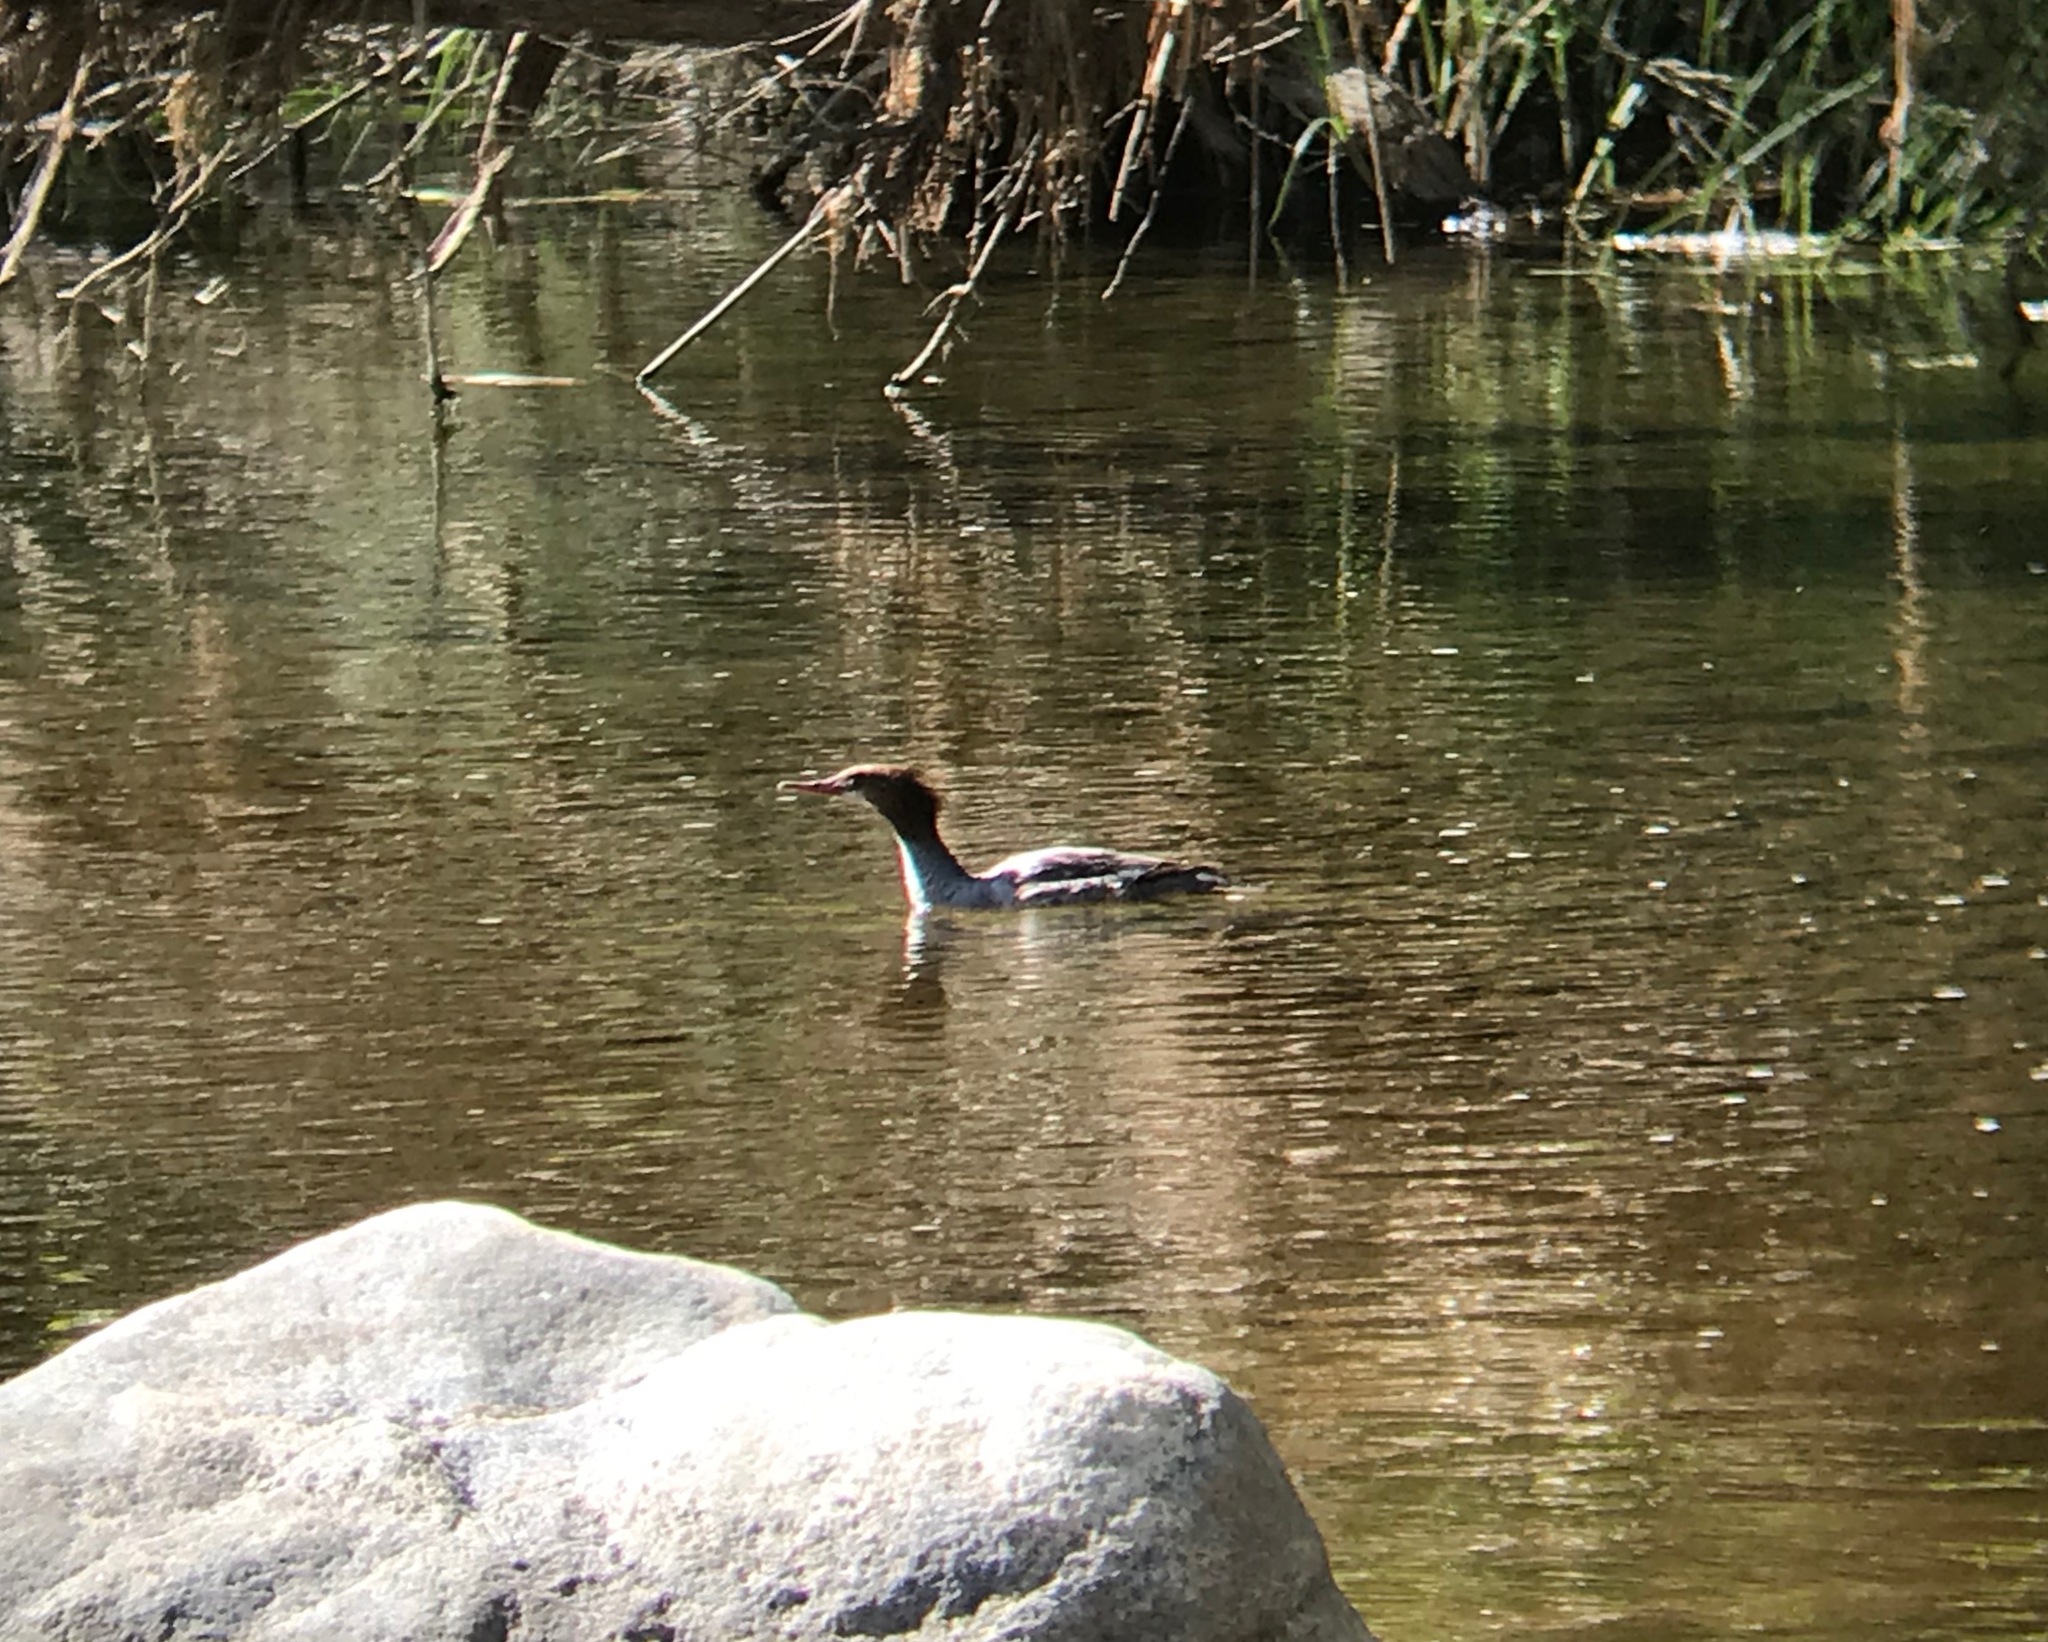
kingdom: Animalia
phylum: Chordata
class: Aves
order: Anseriformes
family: Anatidae
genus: Mergus
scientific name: Mergus merganser
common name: Common merganser
